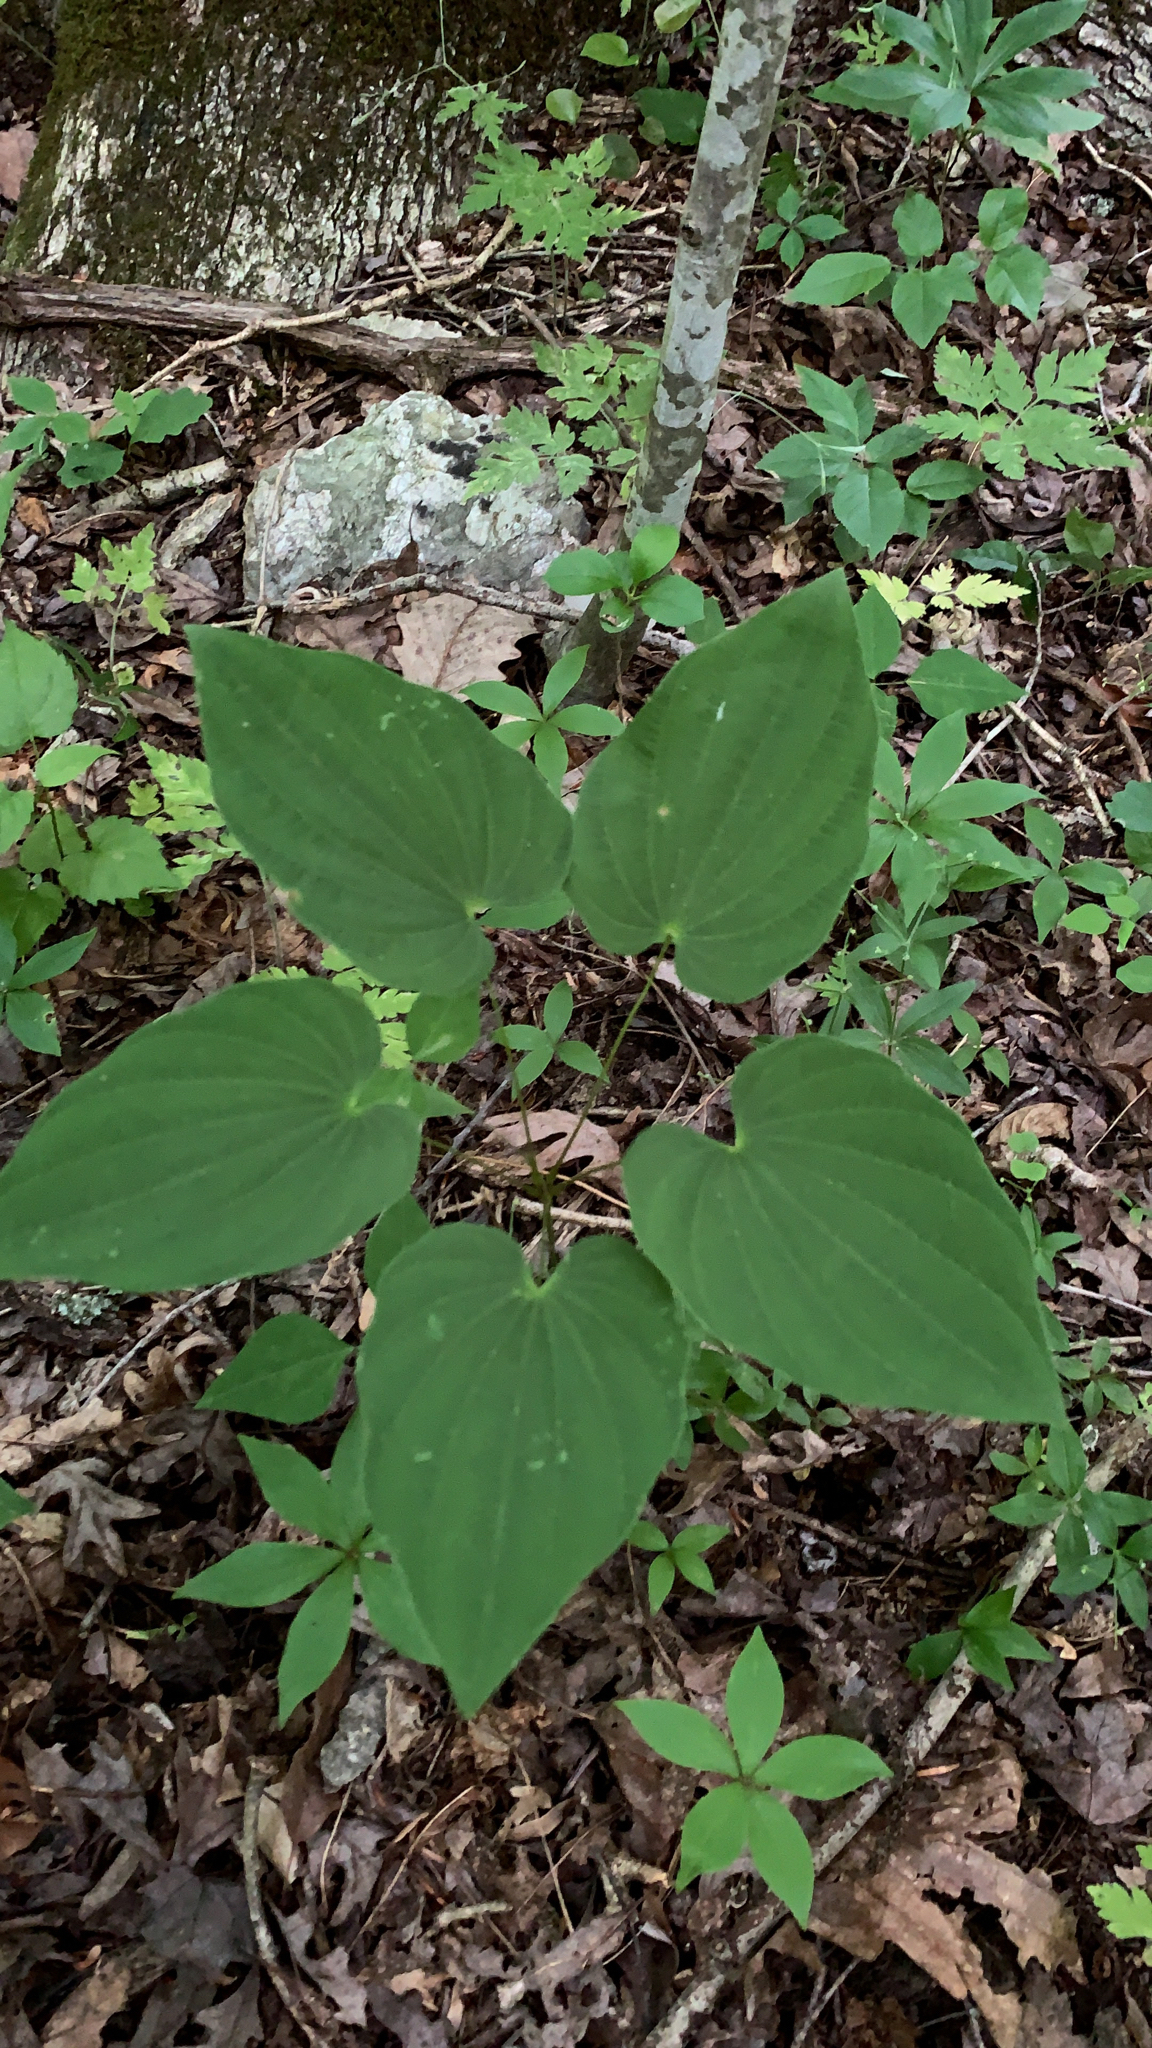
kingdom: Plantae
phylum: Tracheophyta
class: Liliopsida
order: Dioscoreales
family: Dioscoreaceae
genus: Dioscorea
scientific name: Dioscorea villosa
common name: Wild yam
